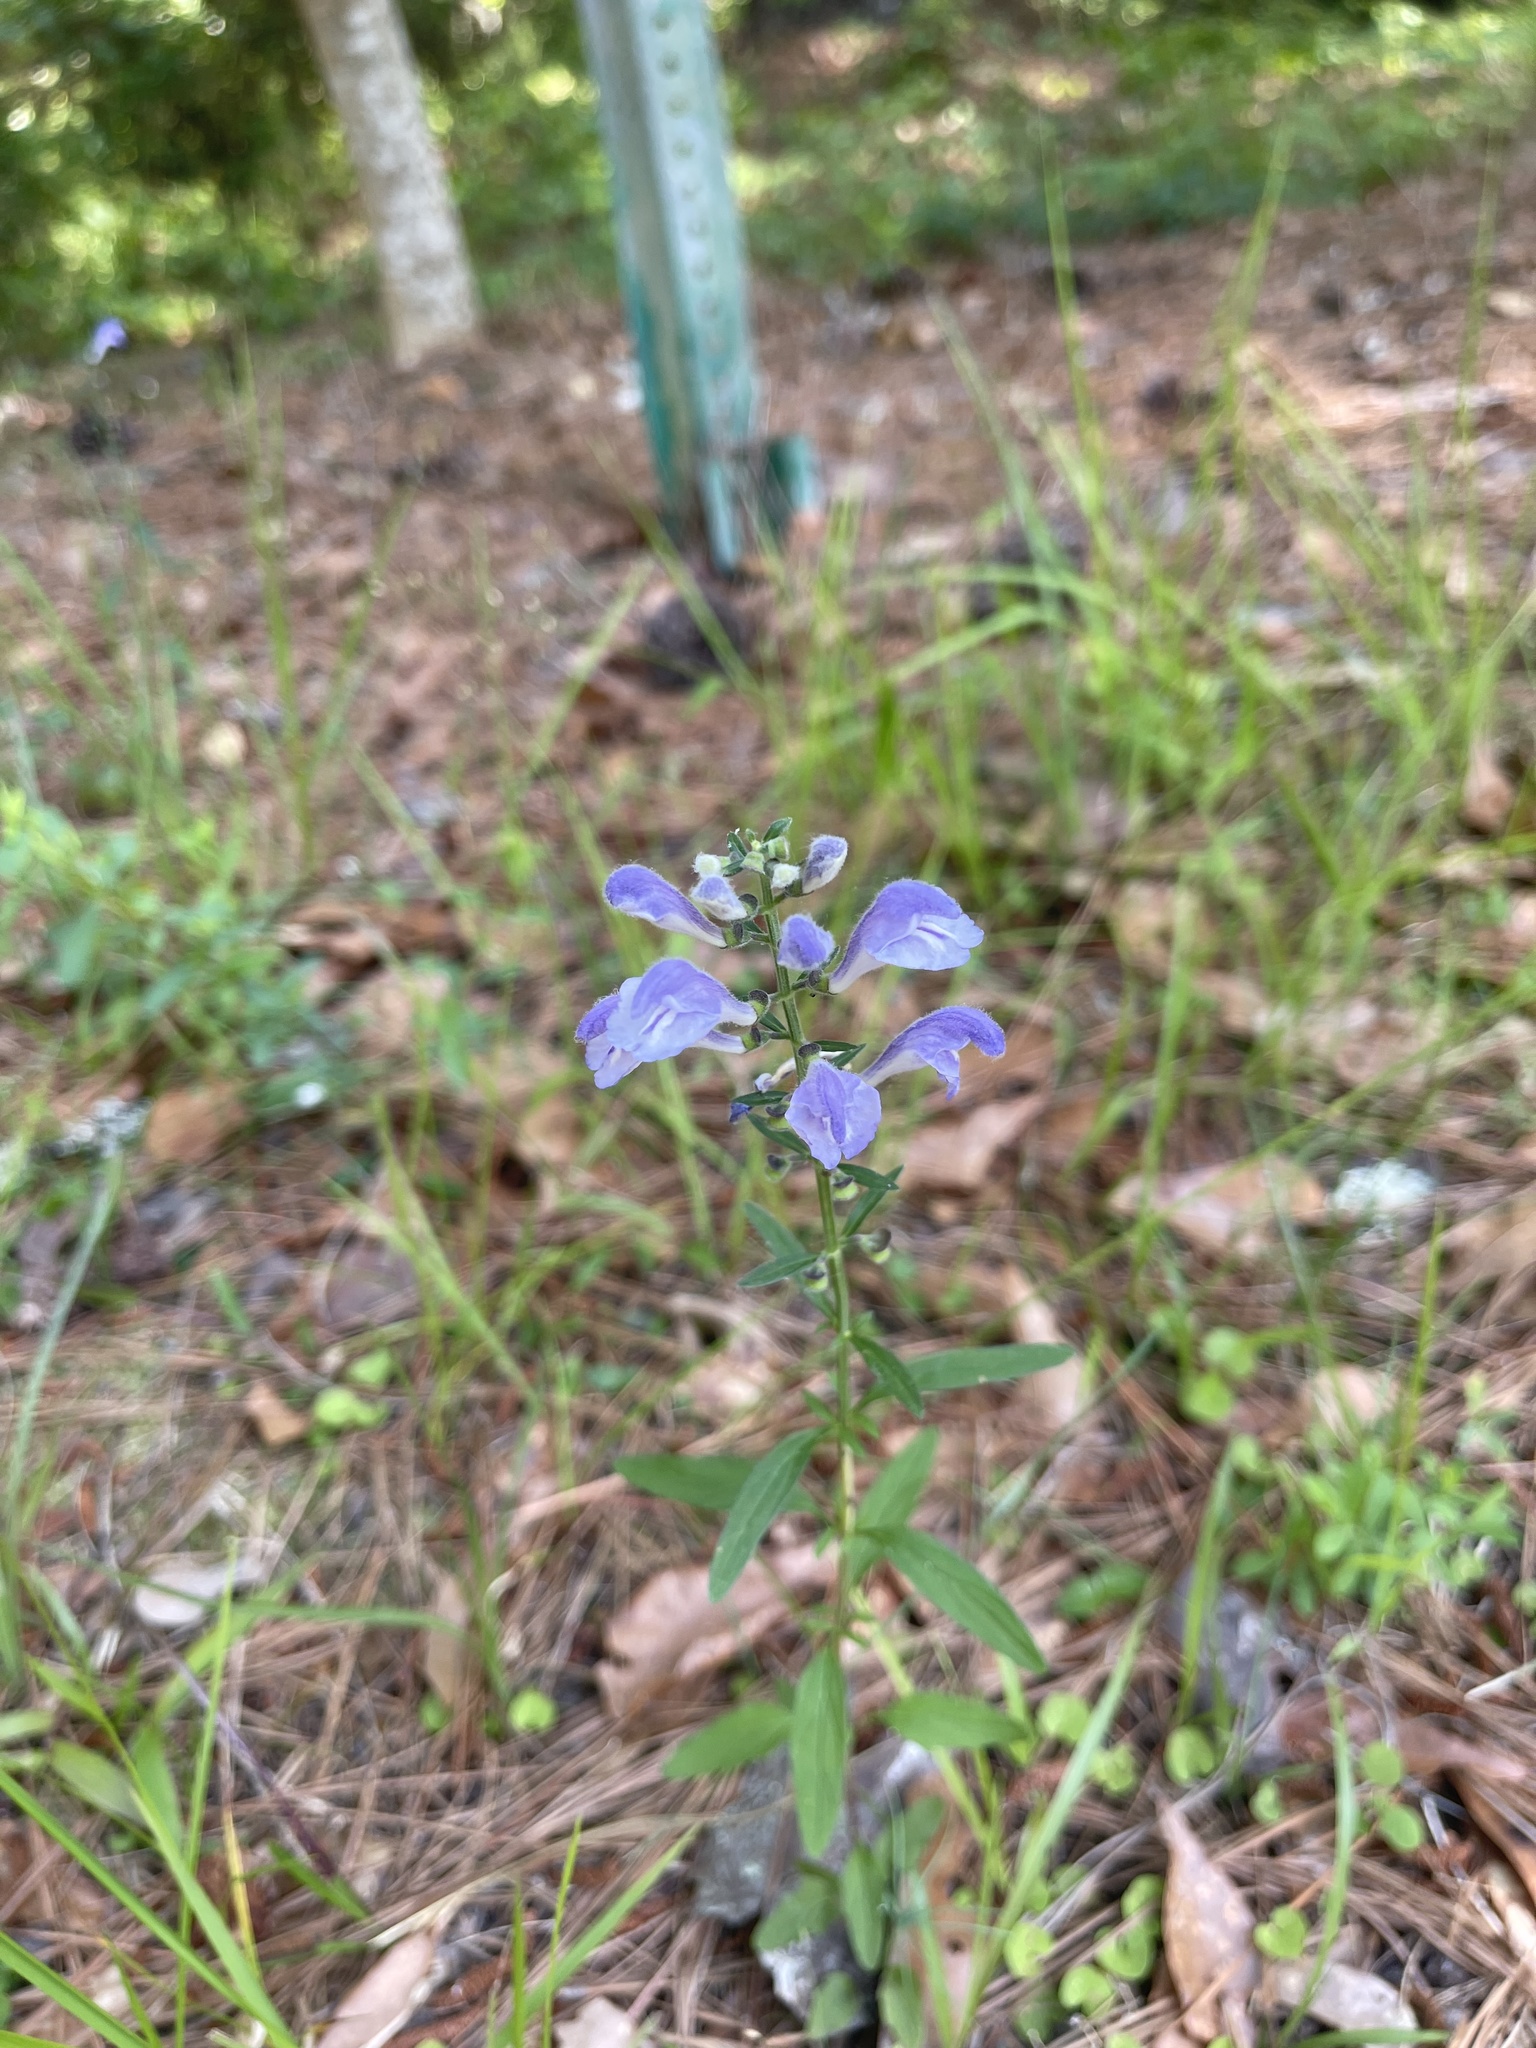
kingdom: Plantae
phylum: Tracheophyta
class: Magnoliopsida
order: Lamiales
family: Lamiaceae
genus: Scutellaria
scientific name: Scutellaria integrifolia
